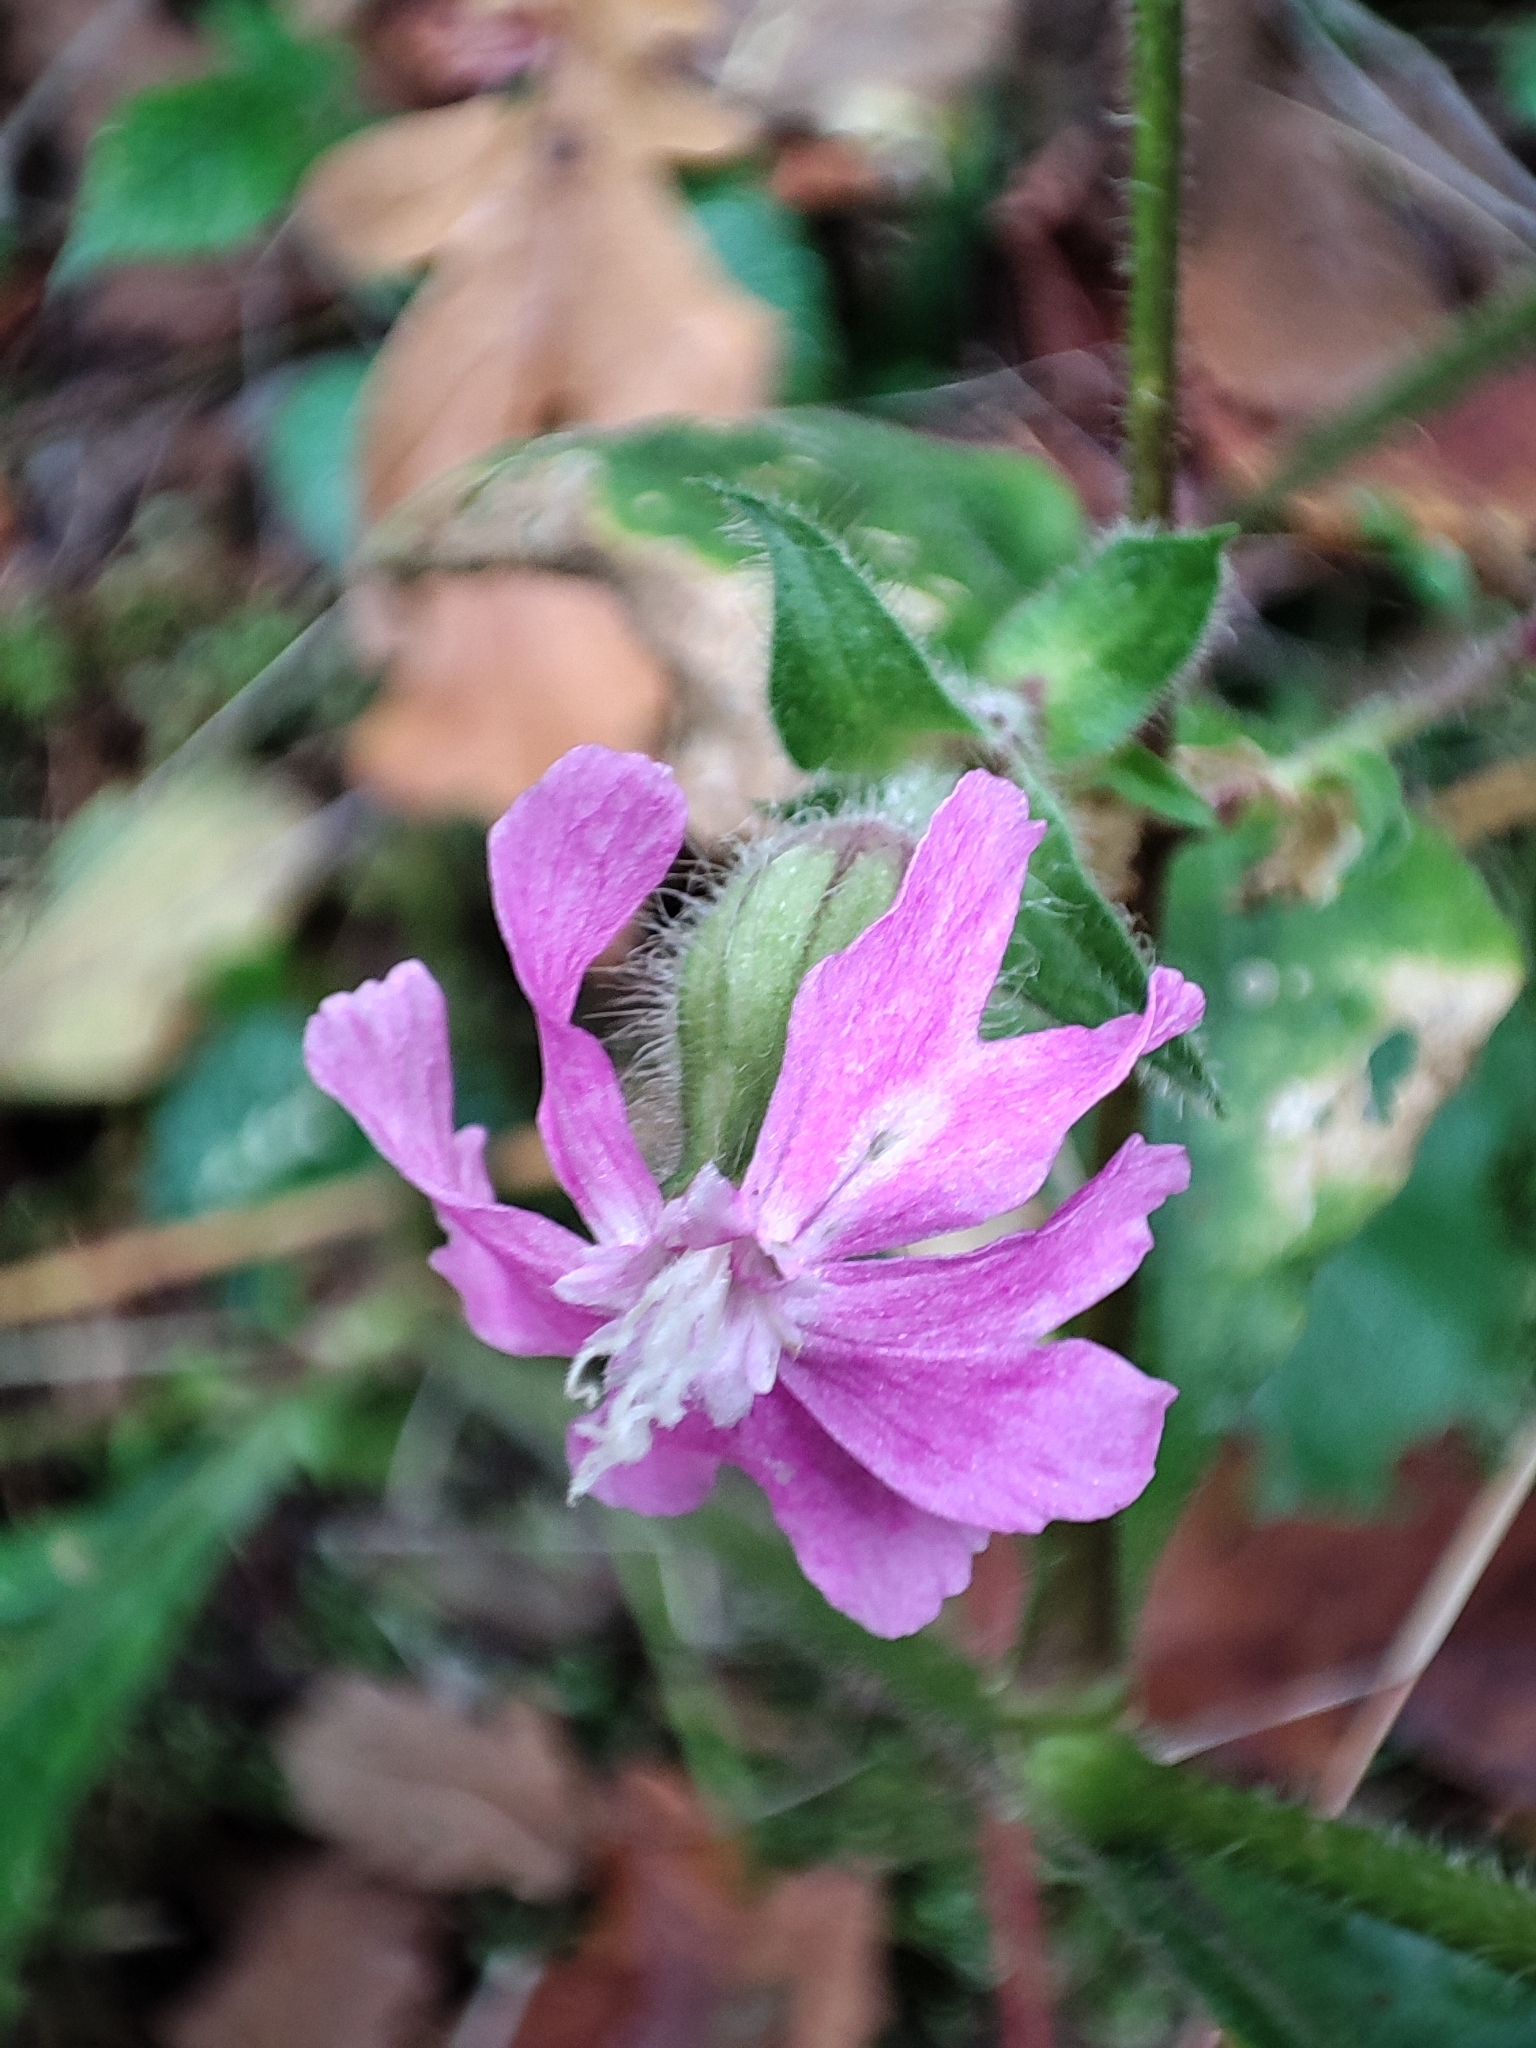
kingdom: Plantae
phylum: Tracheophyta
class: Magnoliopsida
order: Caryophyllales
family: Caryophyllaceae
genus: Silene
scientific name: Silene dioica
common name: Red campion
